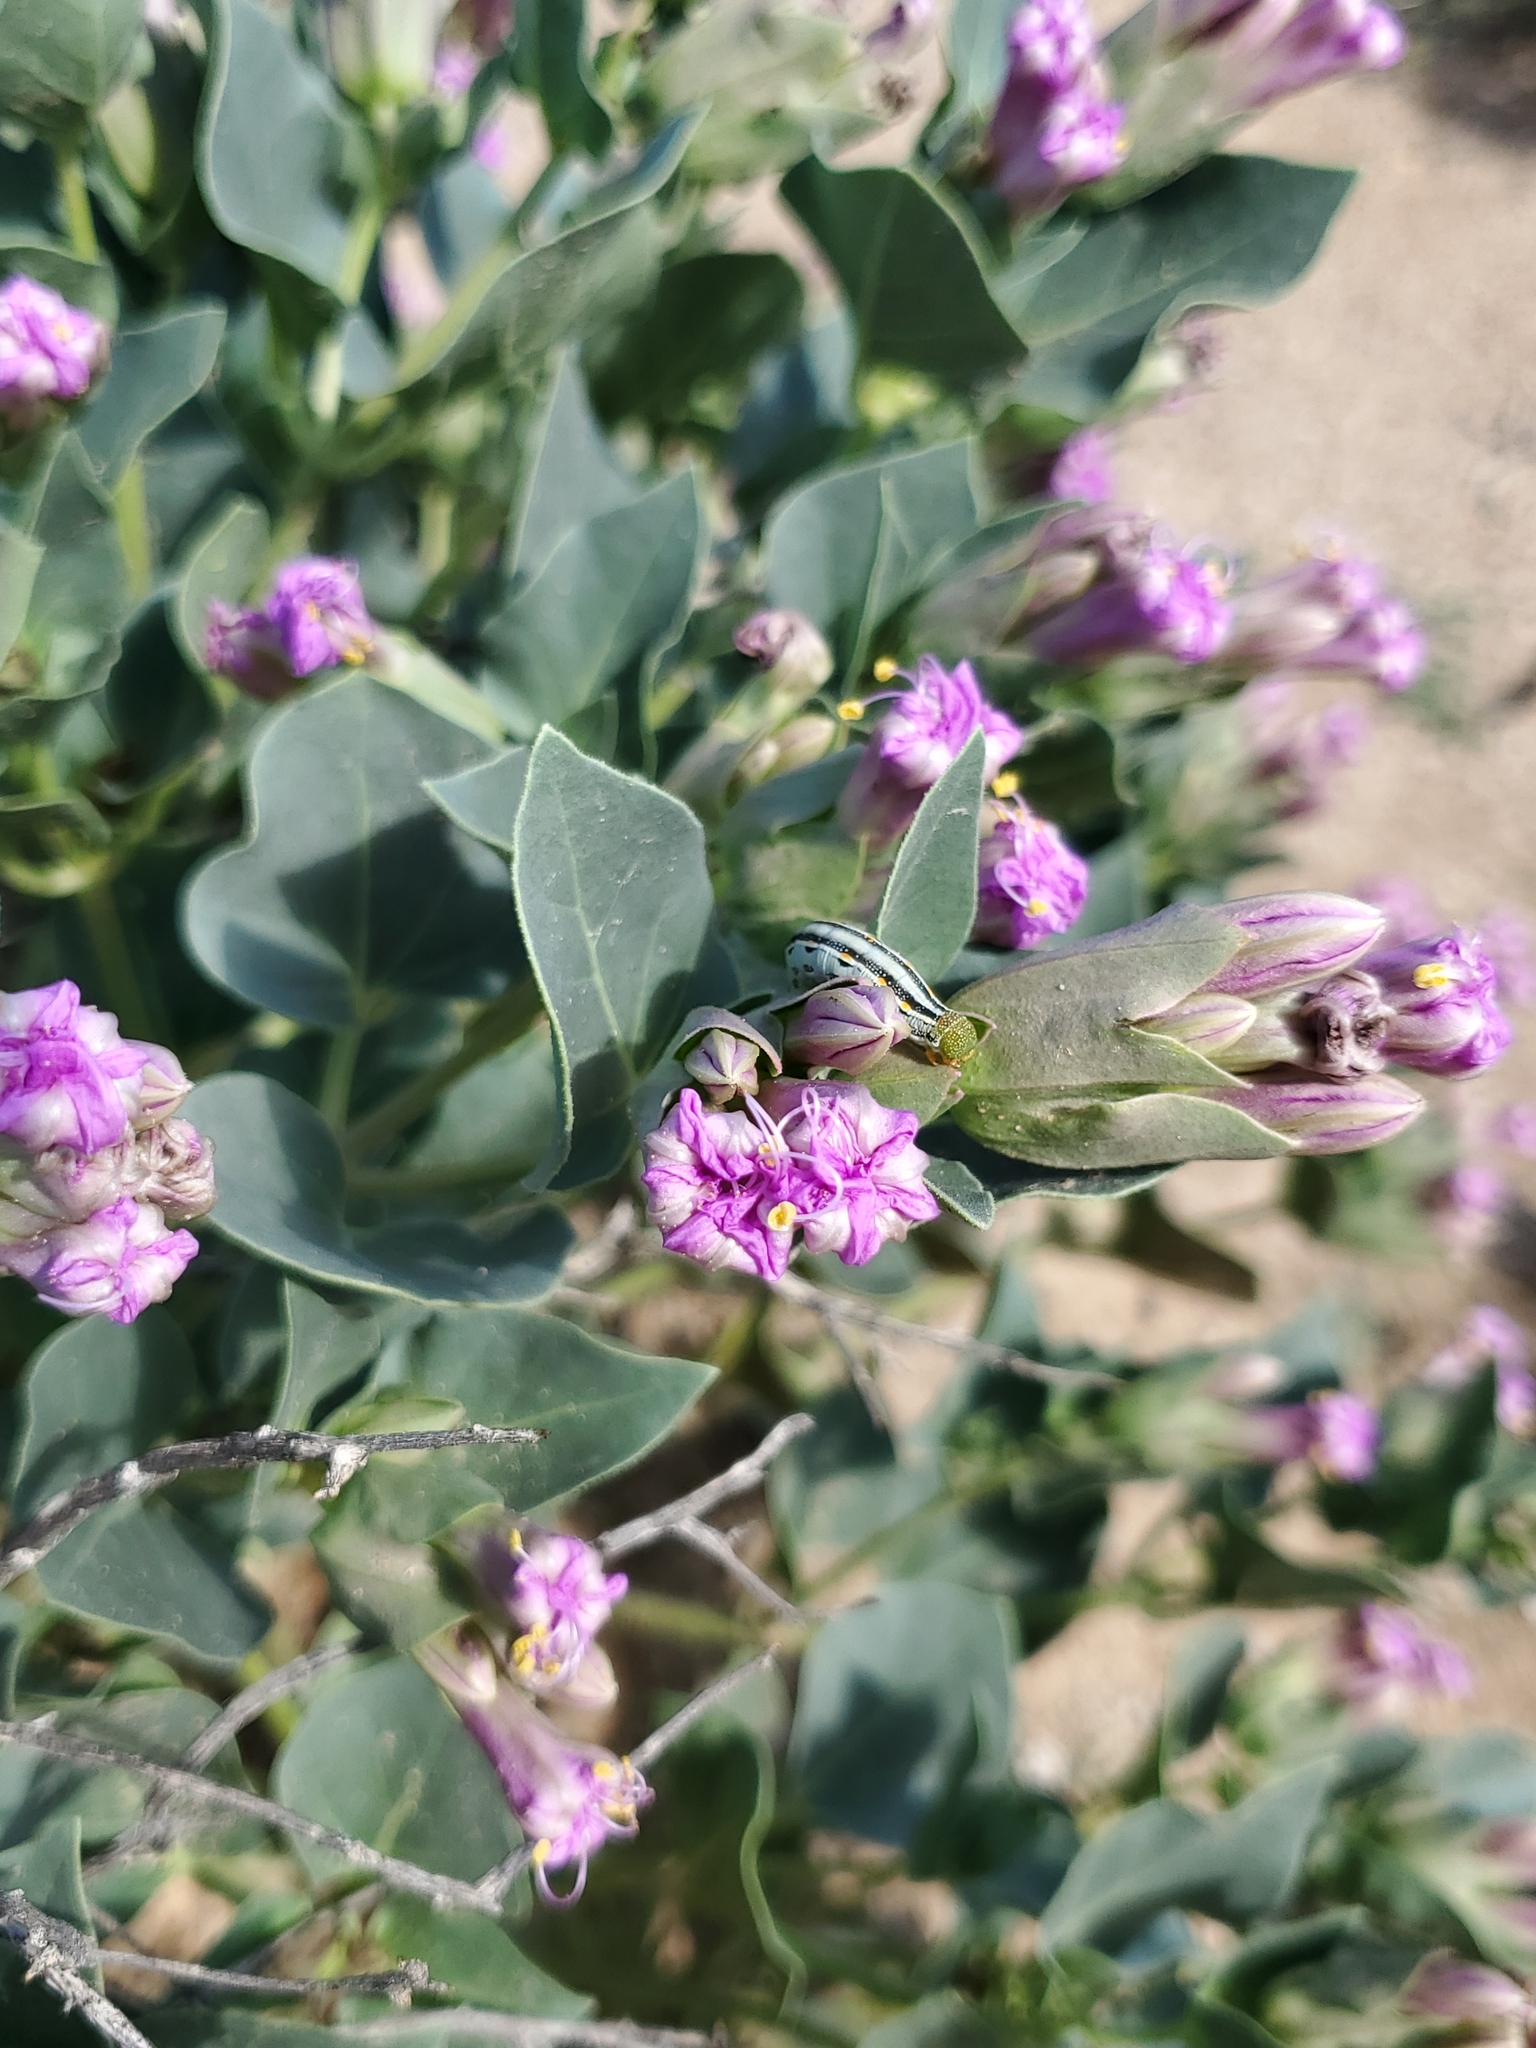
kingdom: Plantae
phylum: Tracheophyta
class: Magnoliopsida
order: Caryophyllales
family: Nyctaginaceae
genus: Mirabilis
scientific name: Mirabilis multiflora
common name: Froebel's four-o'clock
